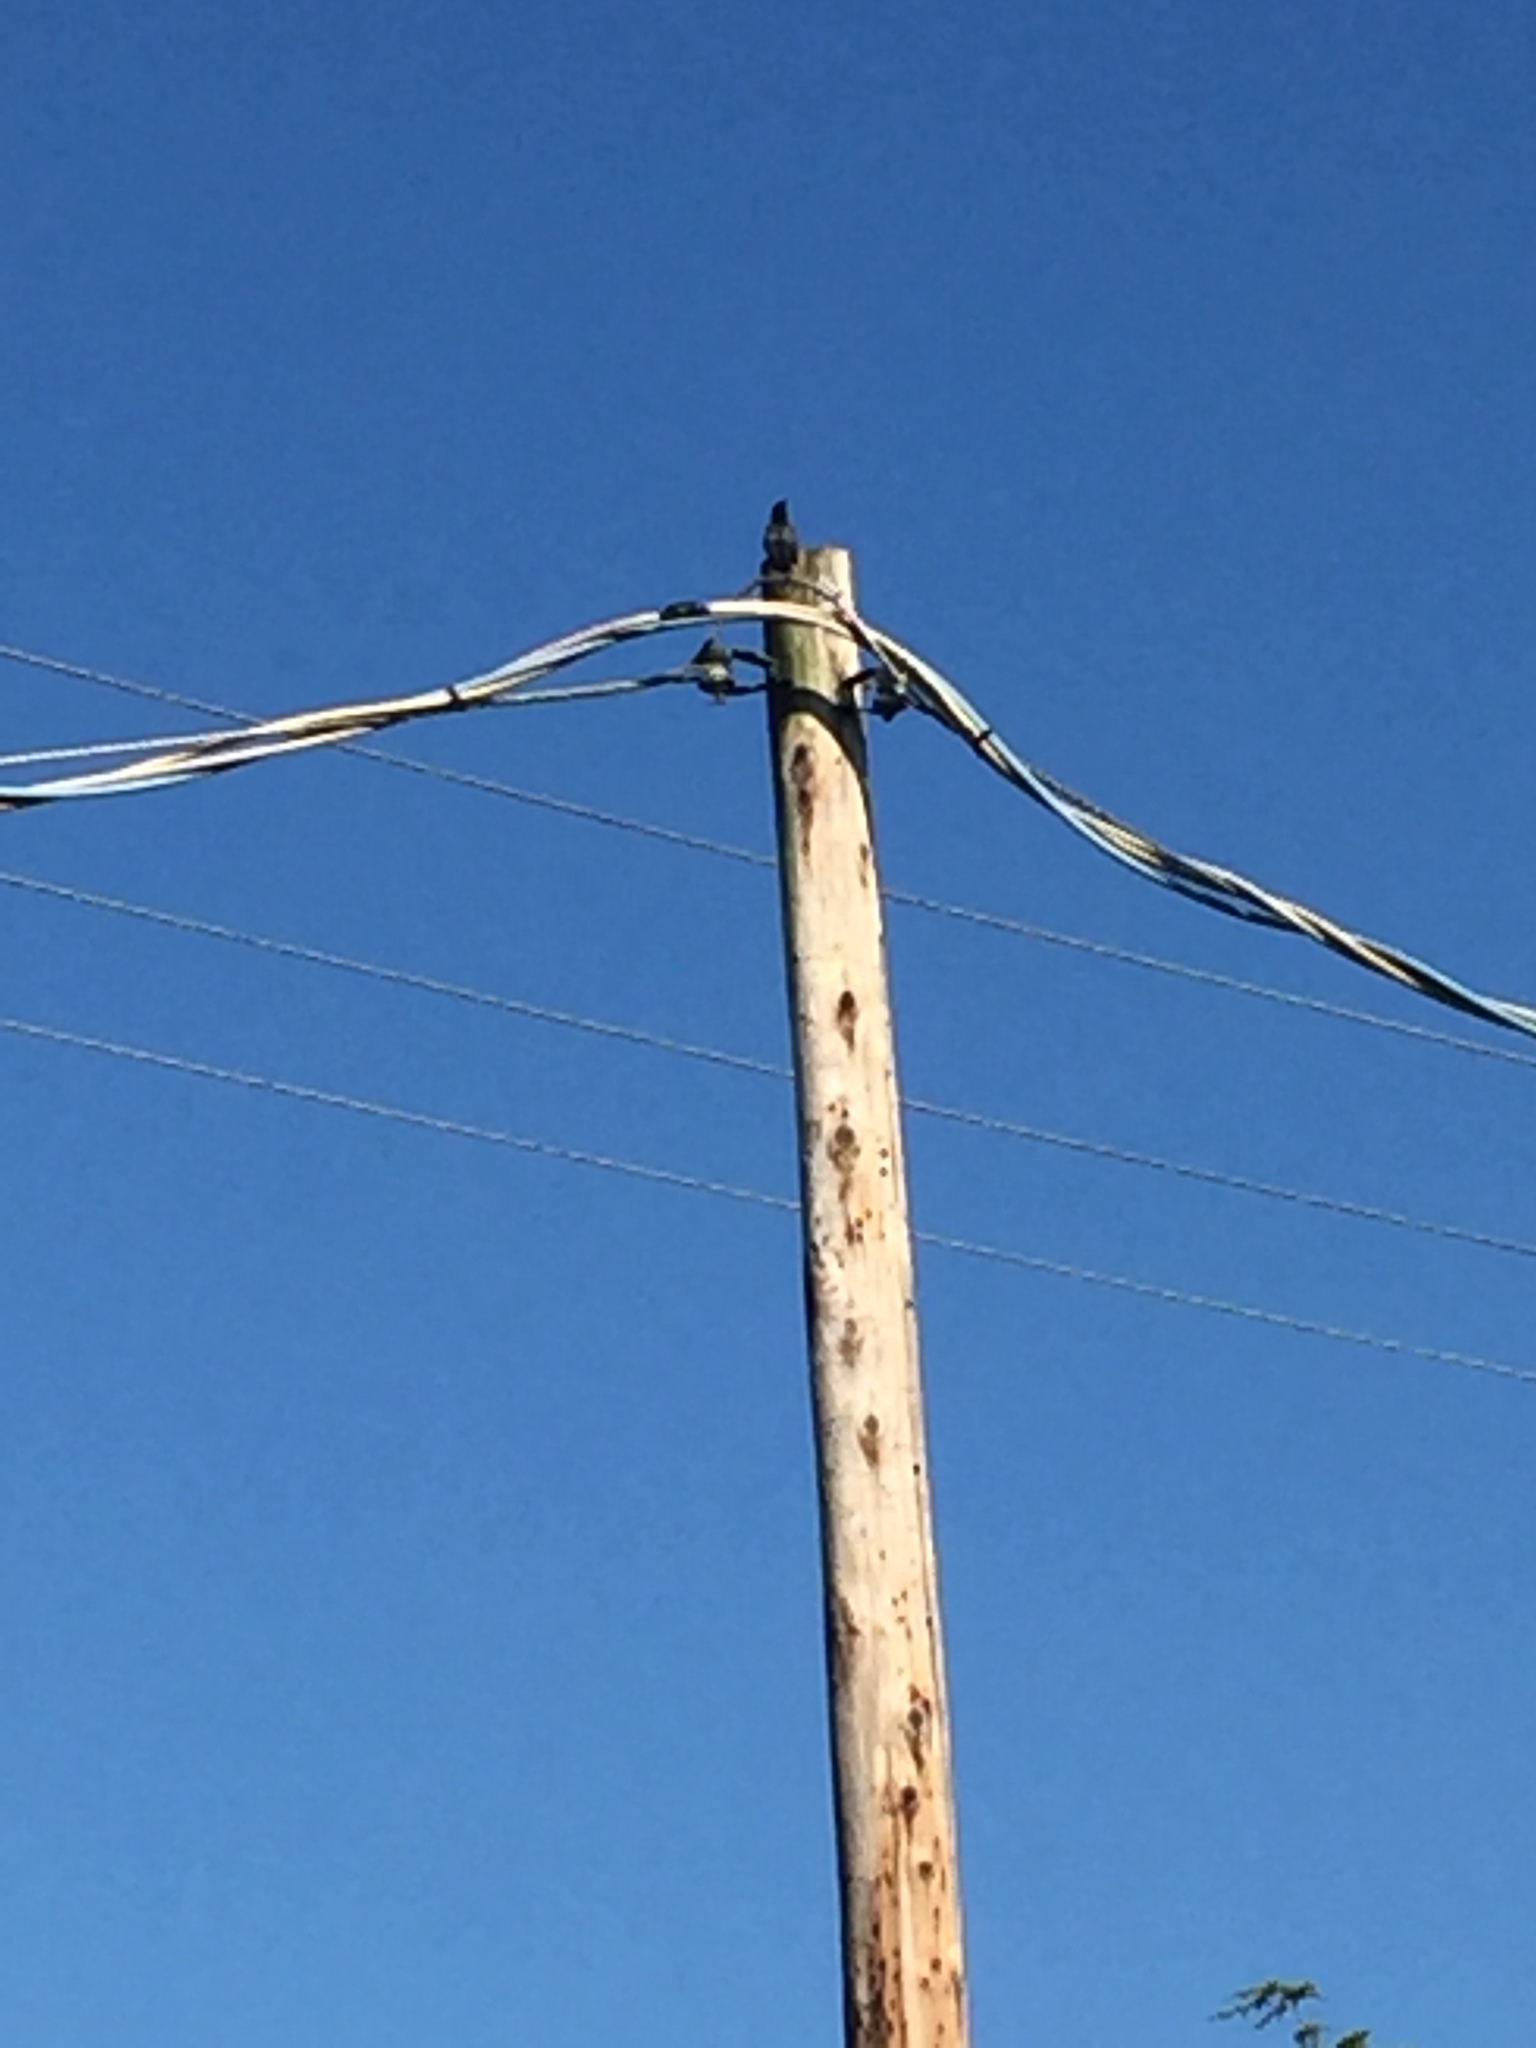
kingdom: Animalia
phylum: Chordata
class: Aves
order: Passeriformes
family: Sturnidae
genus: Sturnus
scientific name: Sturnus vulgaris
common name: Common starling
